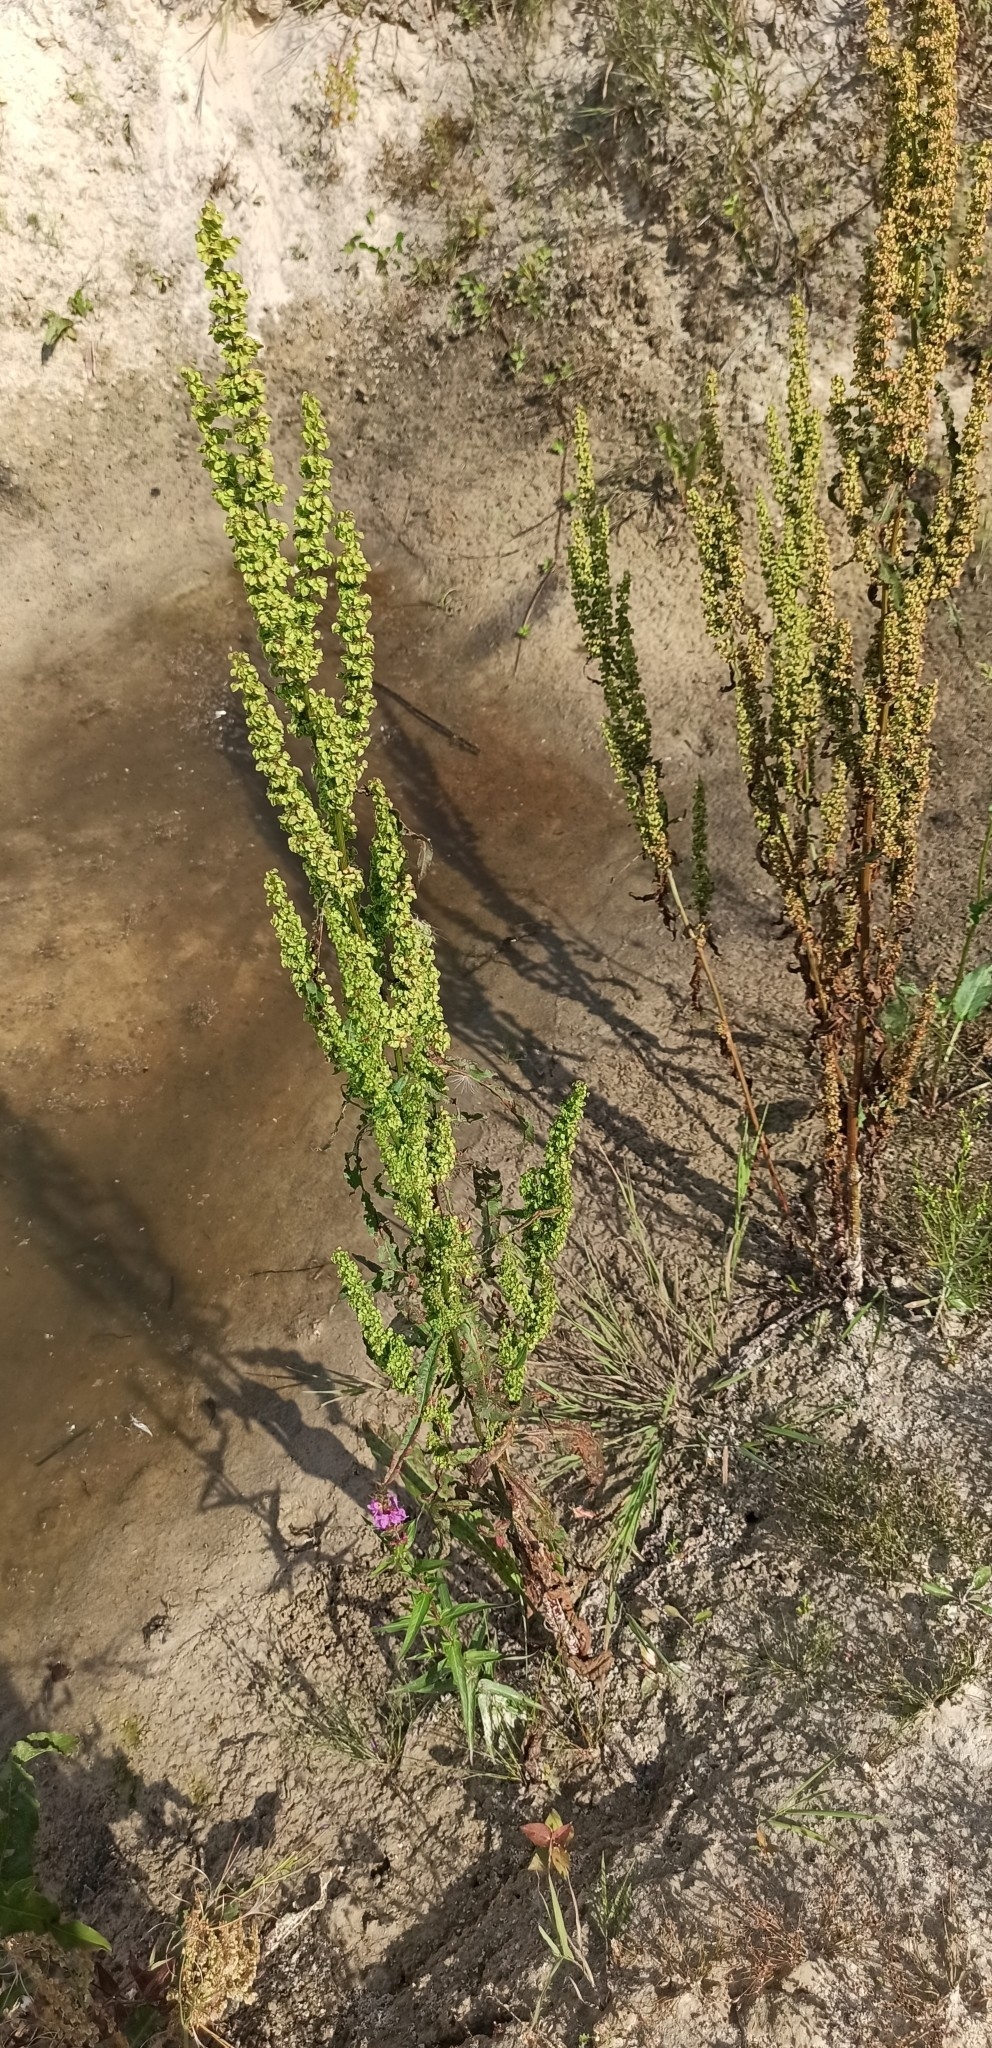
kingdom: Plantae
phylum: Tracheophyta
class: Magnoliopsida
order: Caryophyllales
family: Polygonaceae
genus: Rumex
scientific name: Rumex crispus
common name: Curled dock
